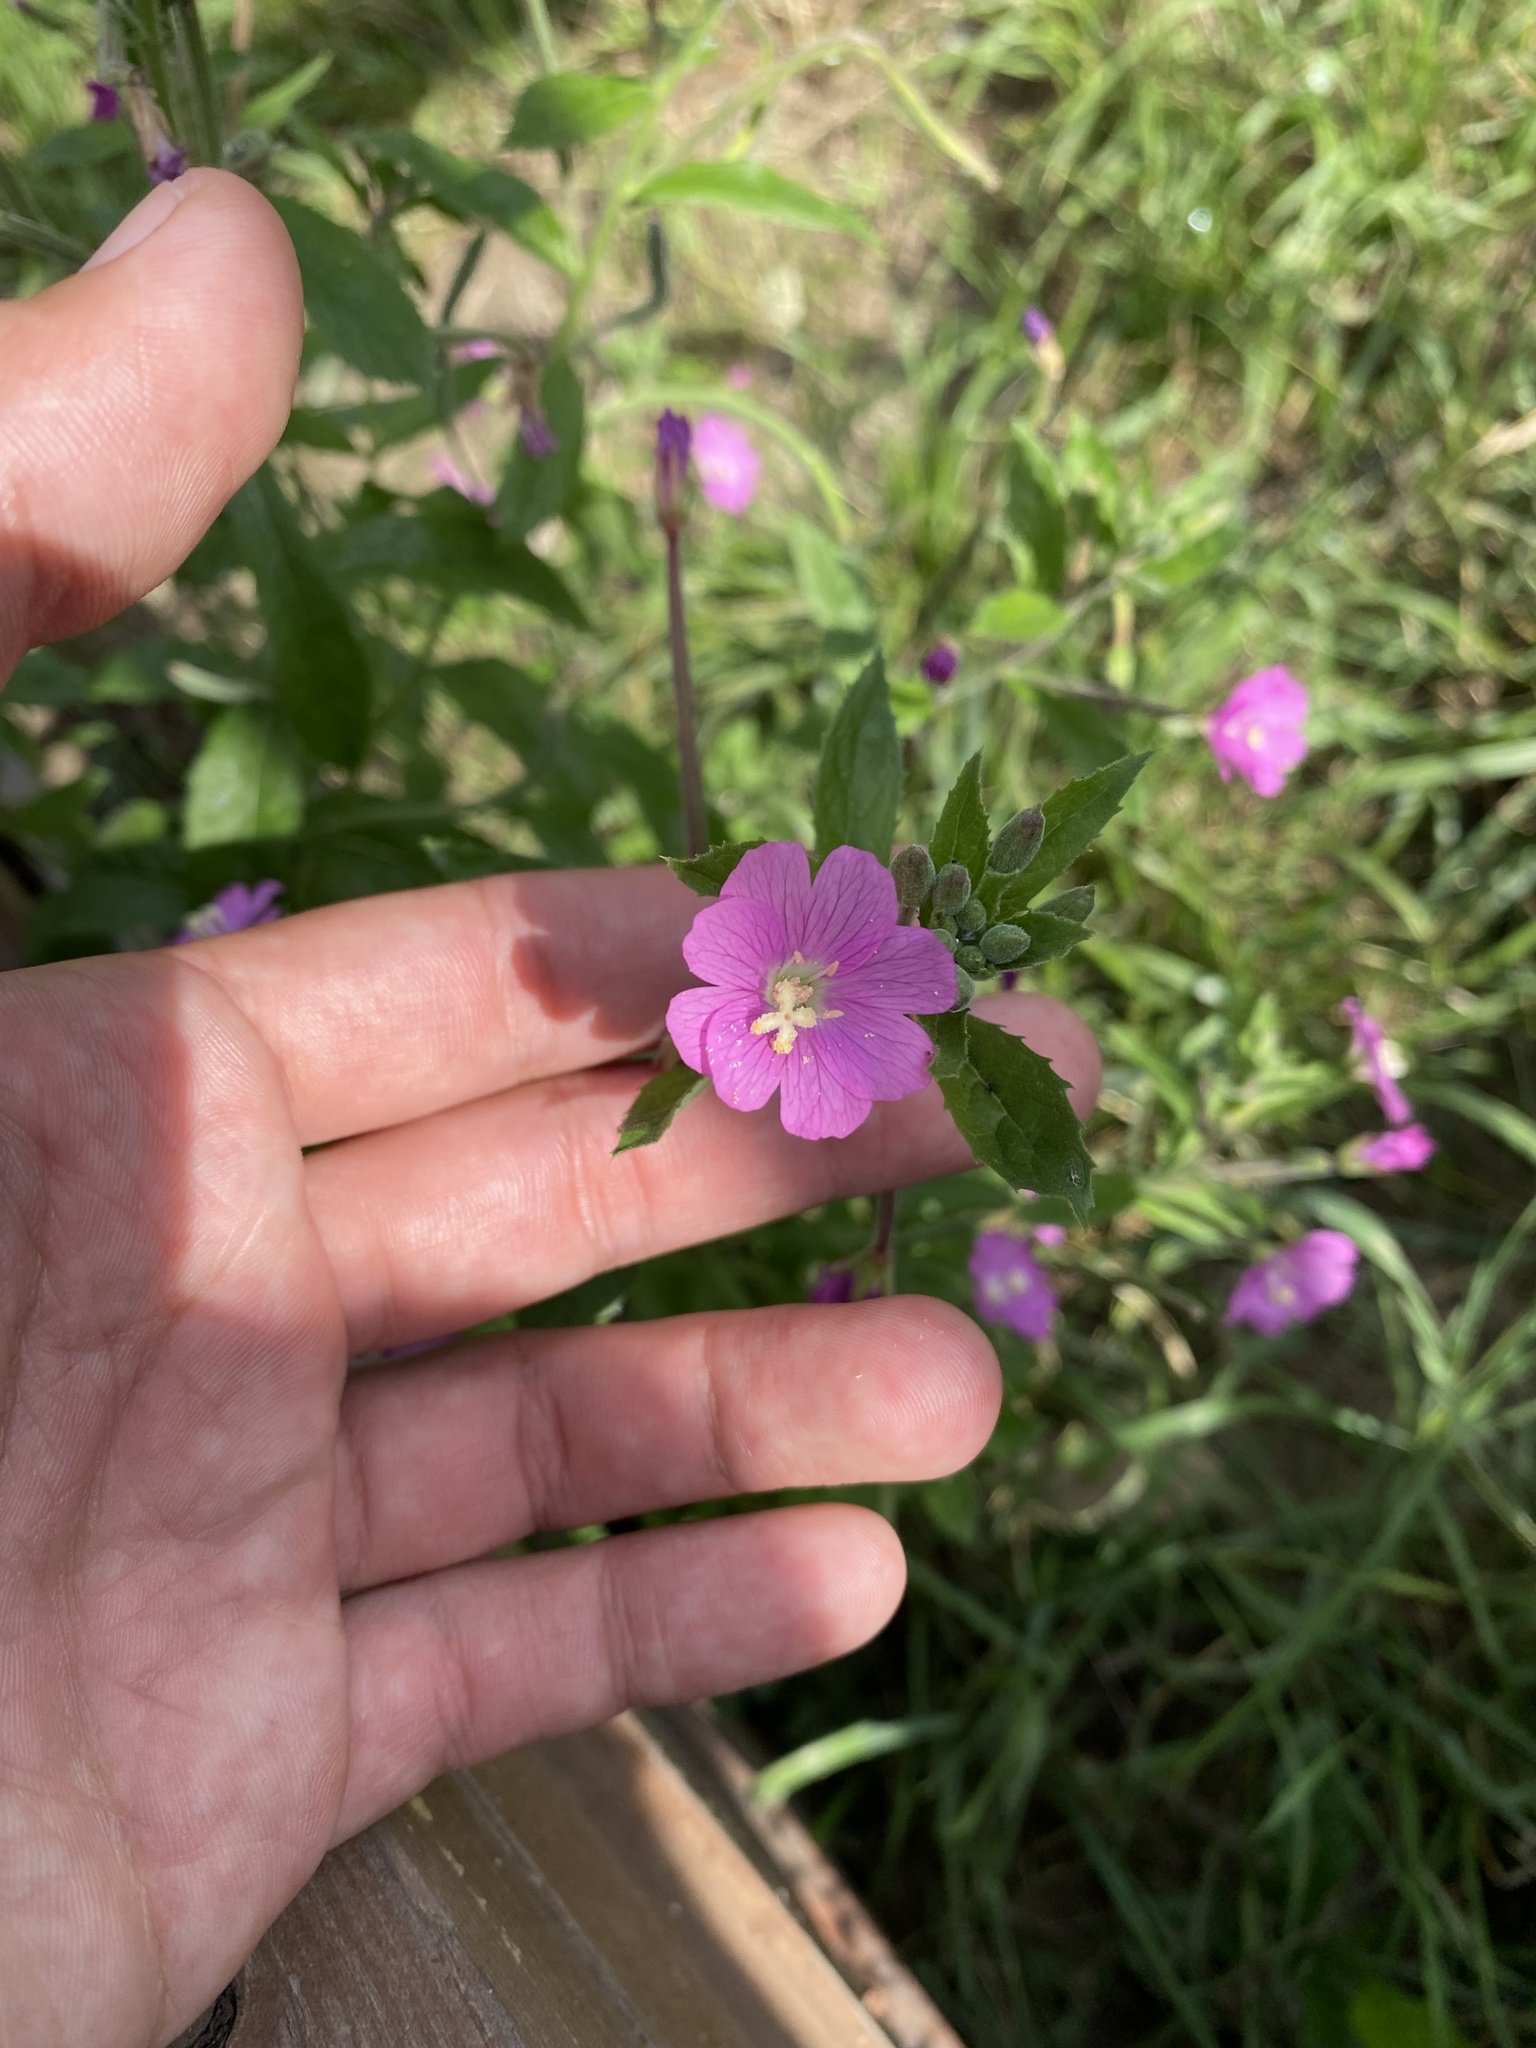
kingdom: Plantae
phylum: Tracheophyta
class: Magnoliopsida
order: Myrtales
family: Onagraceae
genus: Epilobium
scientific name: Epilobium hirsutum
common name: Great willowherb
